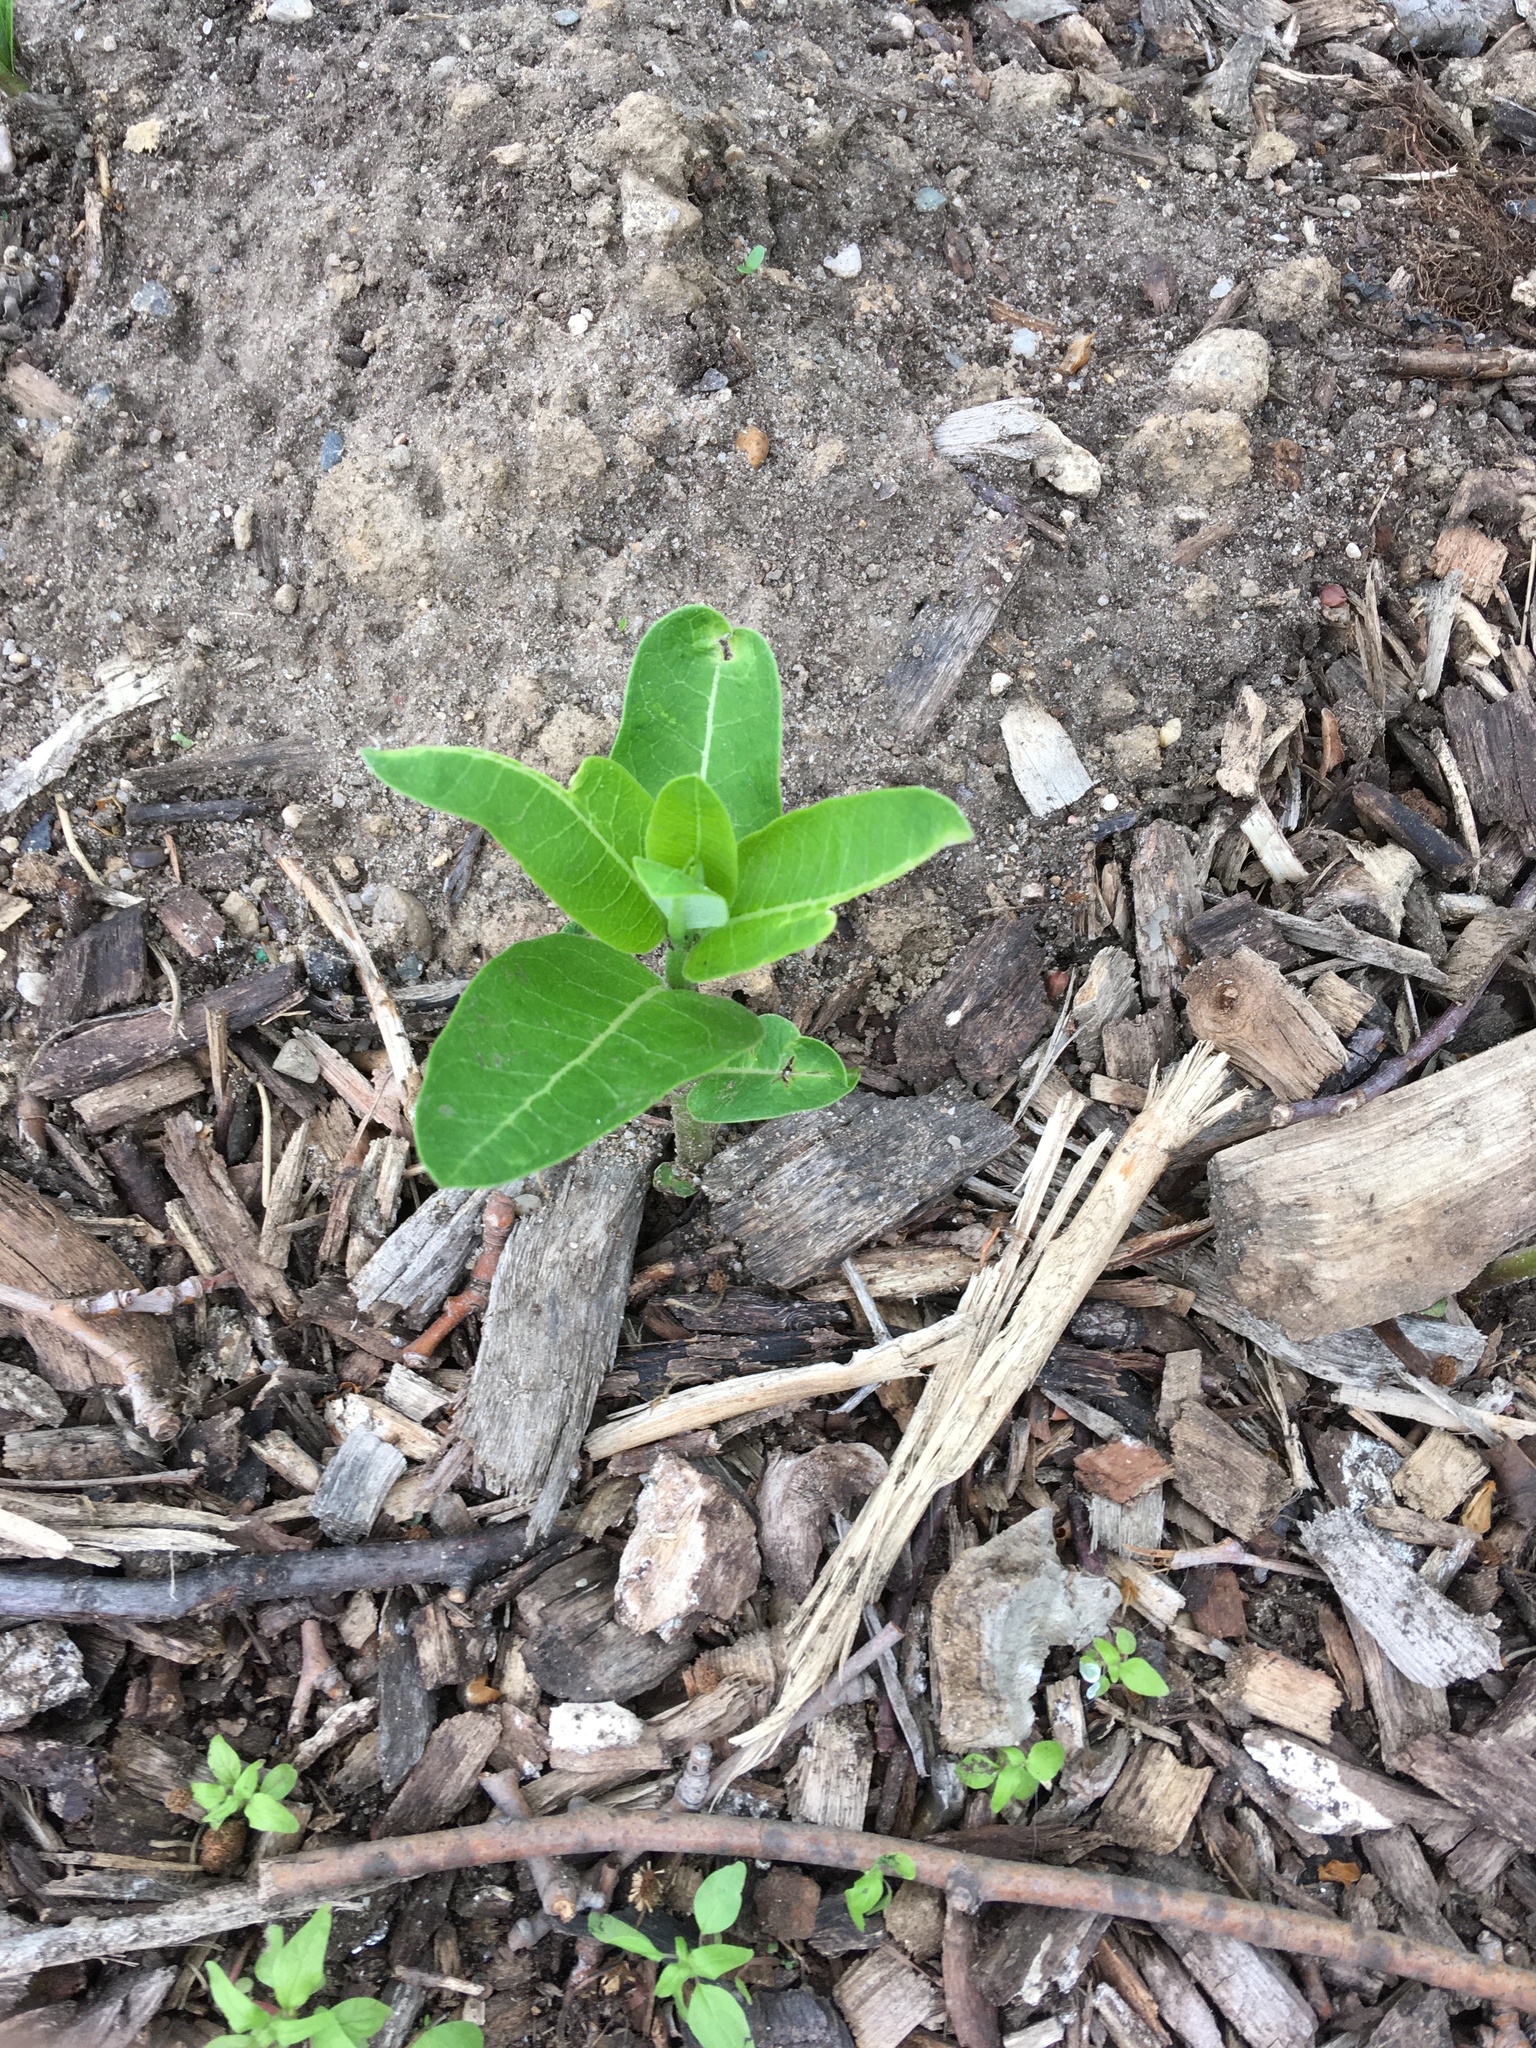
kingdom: Plantae
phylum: Tracheophyta
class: Magnoliopsida
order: Gentianales
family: Apocynaceae
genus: Asclepias
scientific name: Asclepias syriaca
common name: Common milkweed
